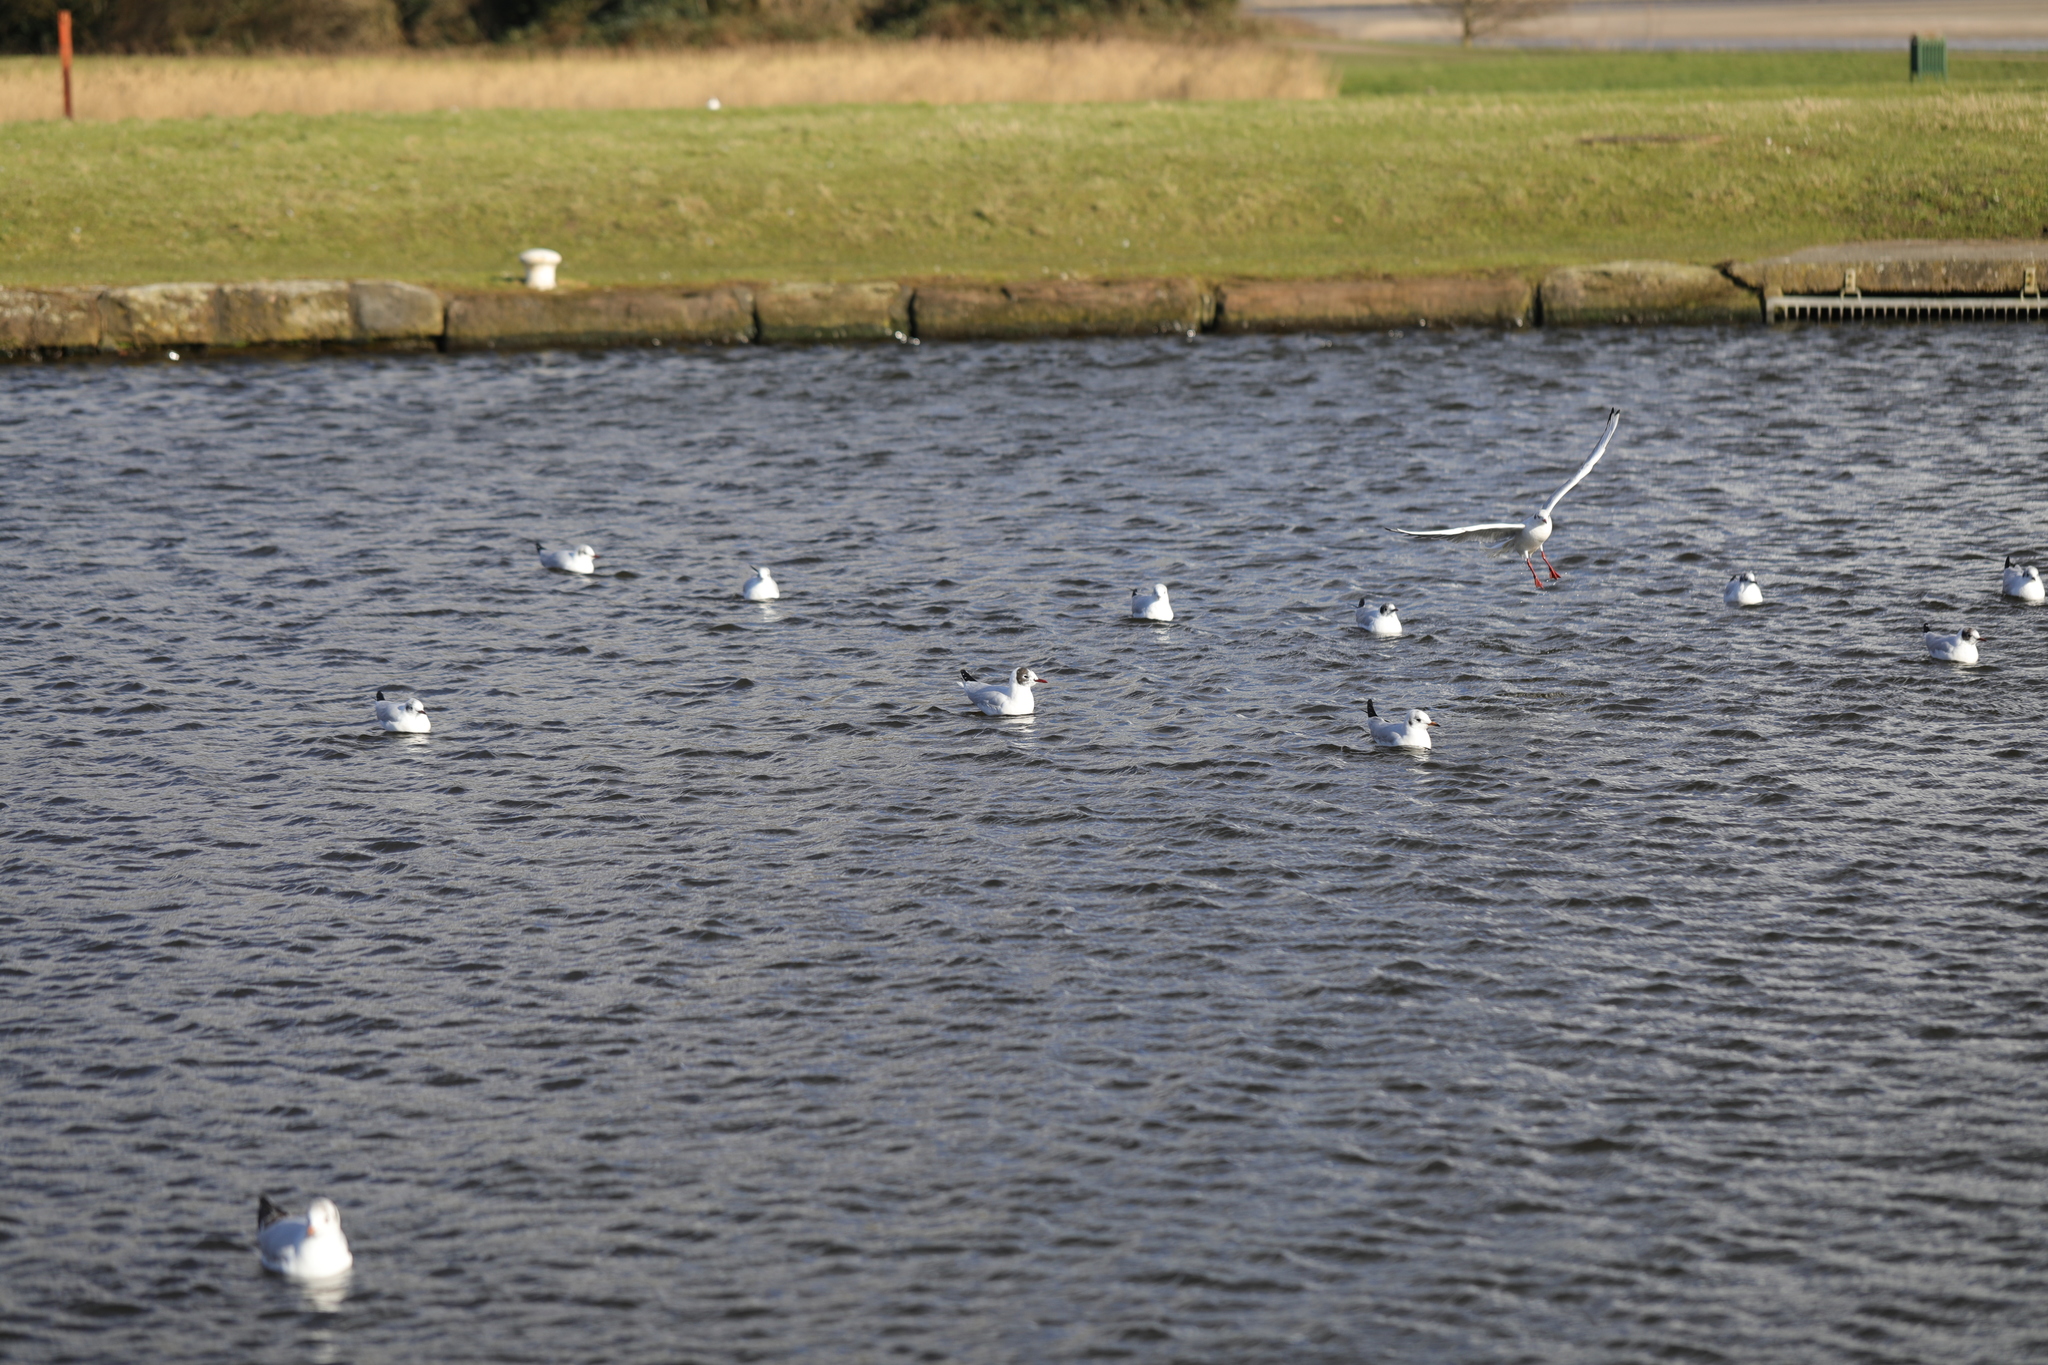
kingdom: Animalia
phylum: Chordata
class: Aves
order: Charadriiformes
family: Laridae
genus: Chroicocephalus
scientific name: Chroicocephalus ridibundus
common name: Black-headed gull
